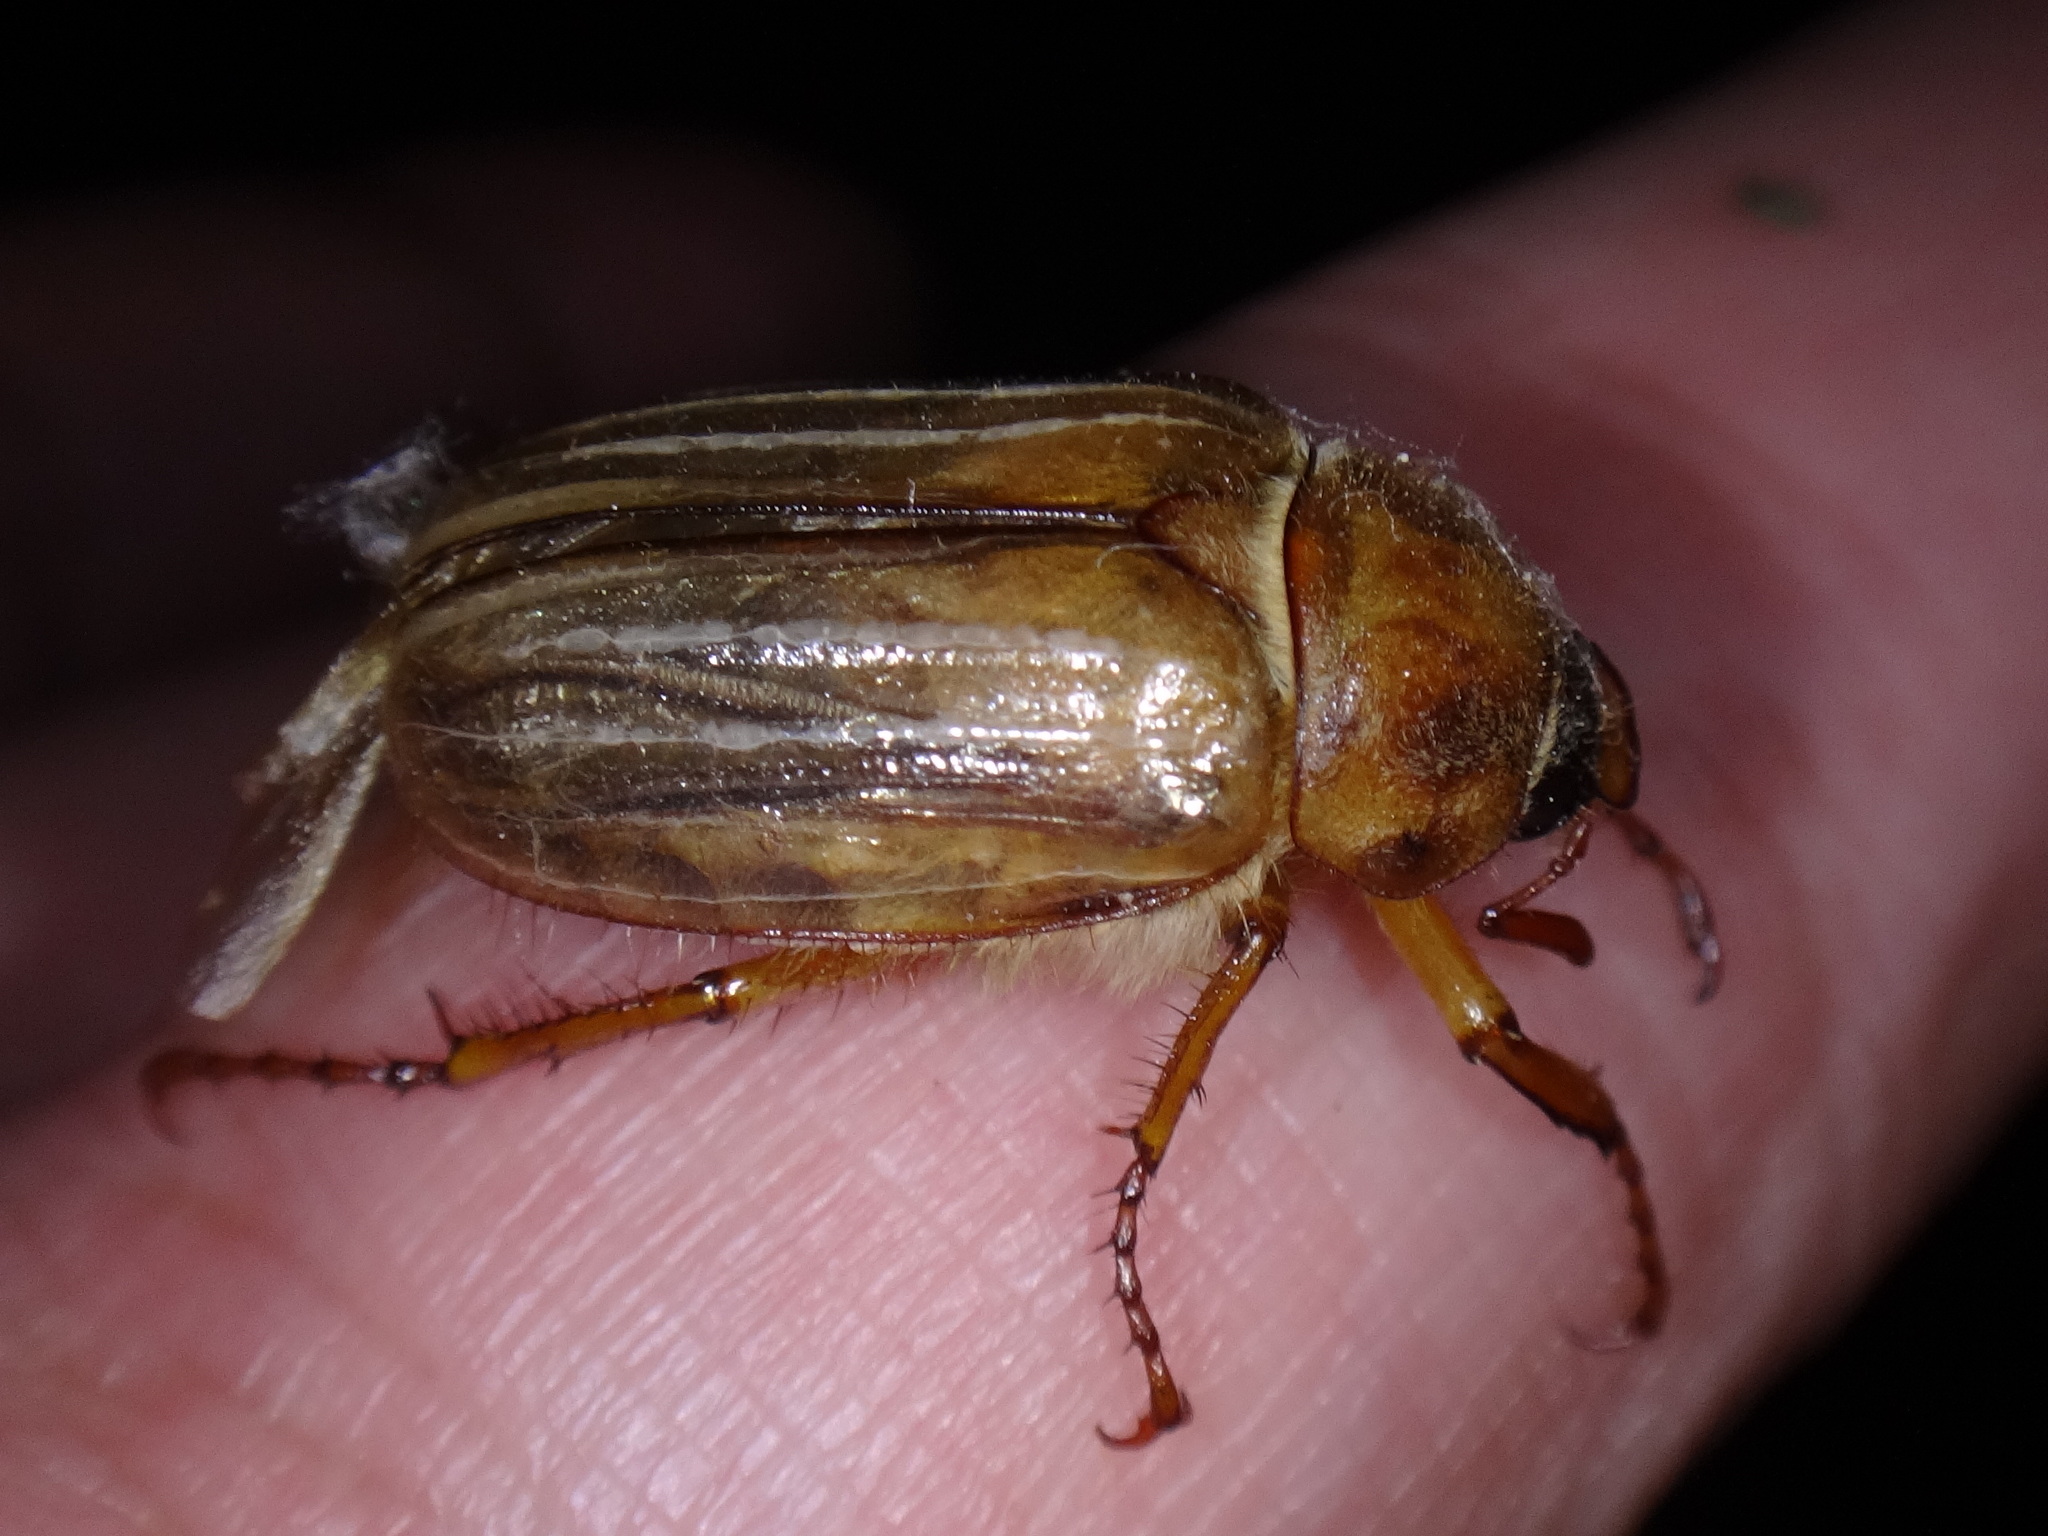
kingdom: Animalia
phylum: Arthropoda
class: Insecta
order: Coleoptera
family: Scarabaeidae
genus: Amphimallon
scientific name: Amphimallon solstitiale
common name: Summer chafer
